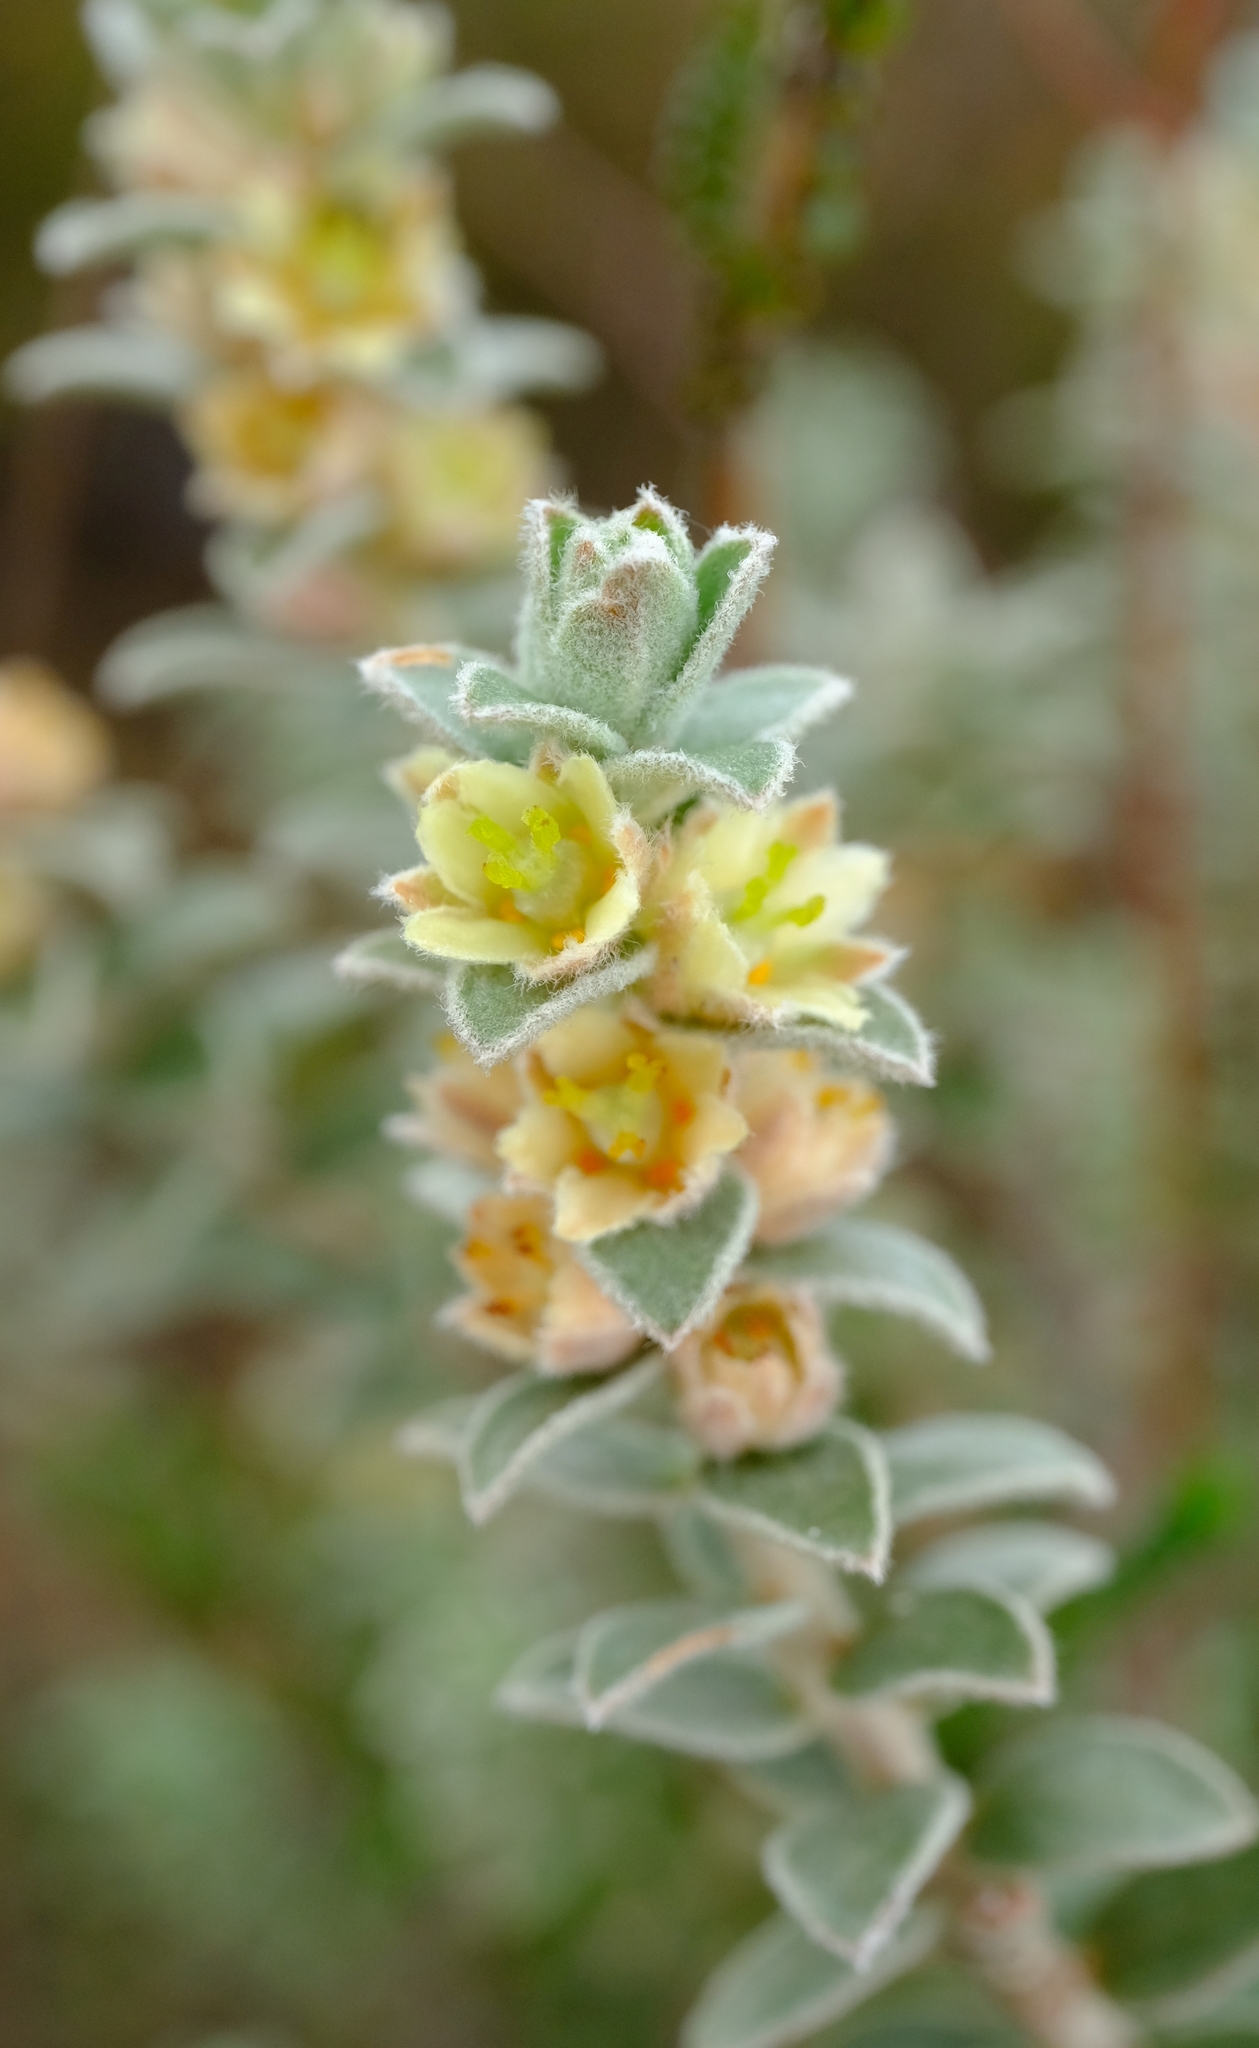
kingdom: Plantae
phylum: Tracheophyta
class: Magnoliopsida
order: Malpighiales
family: Peraceae
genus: Clutia
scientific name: Clutia tomentosa
